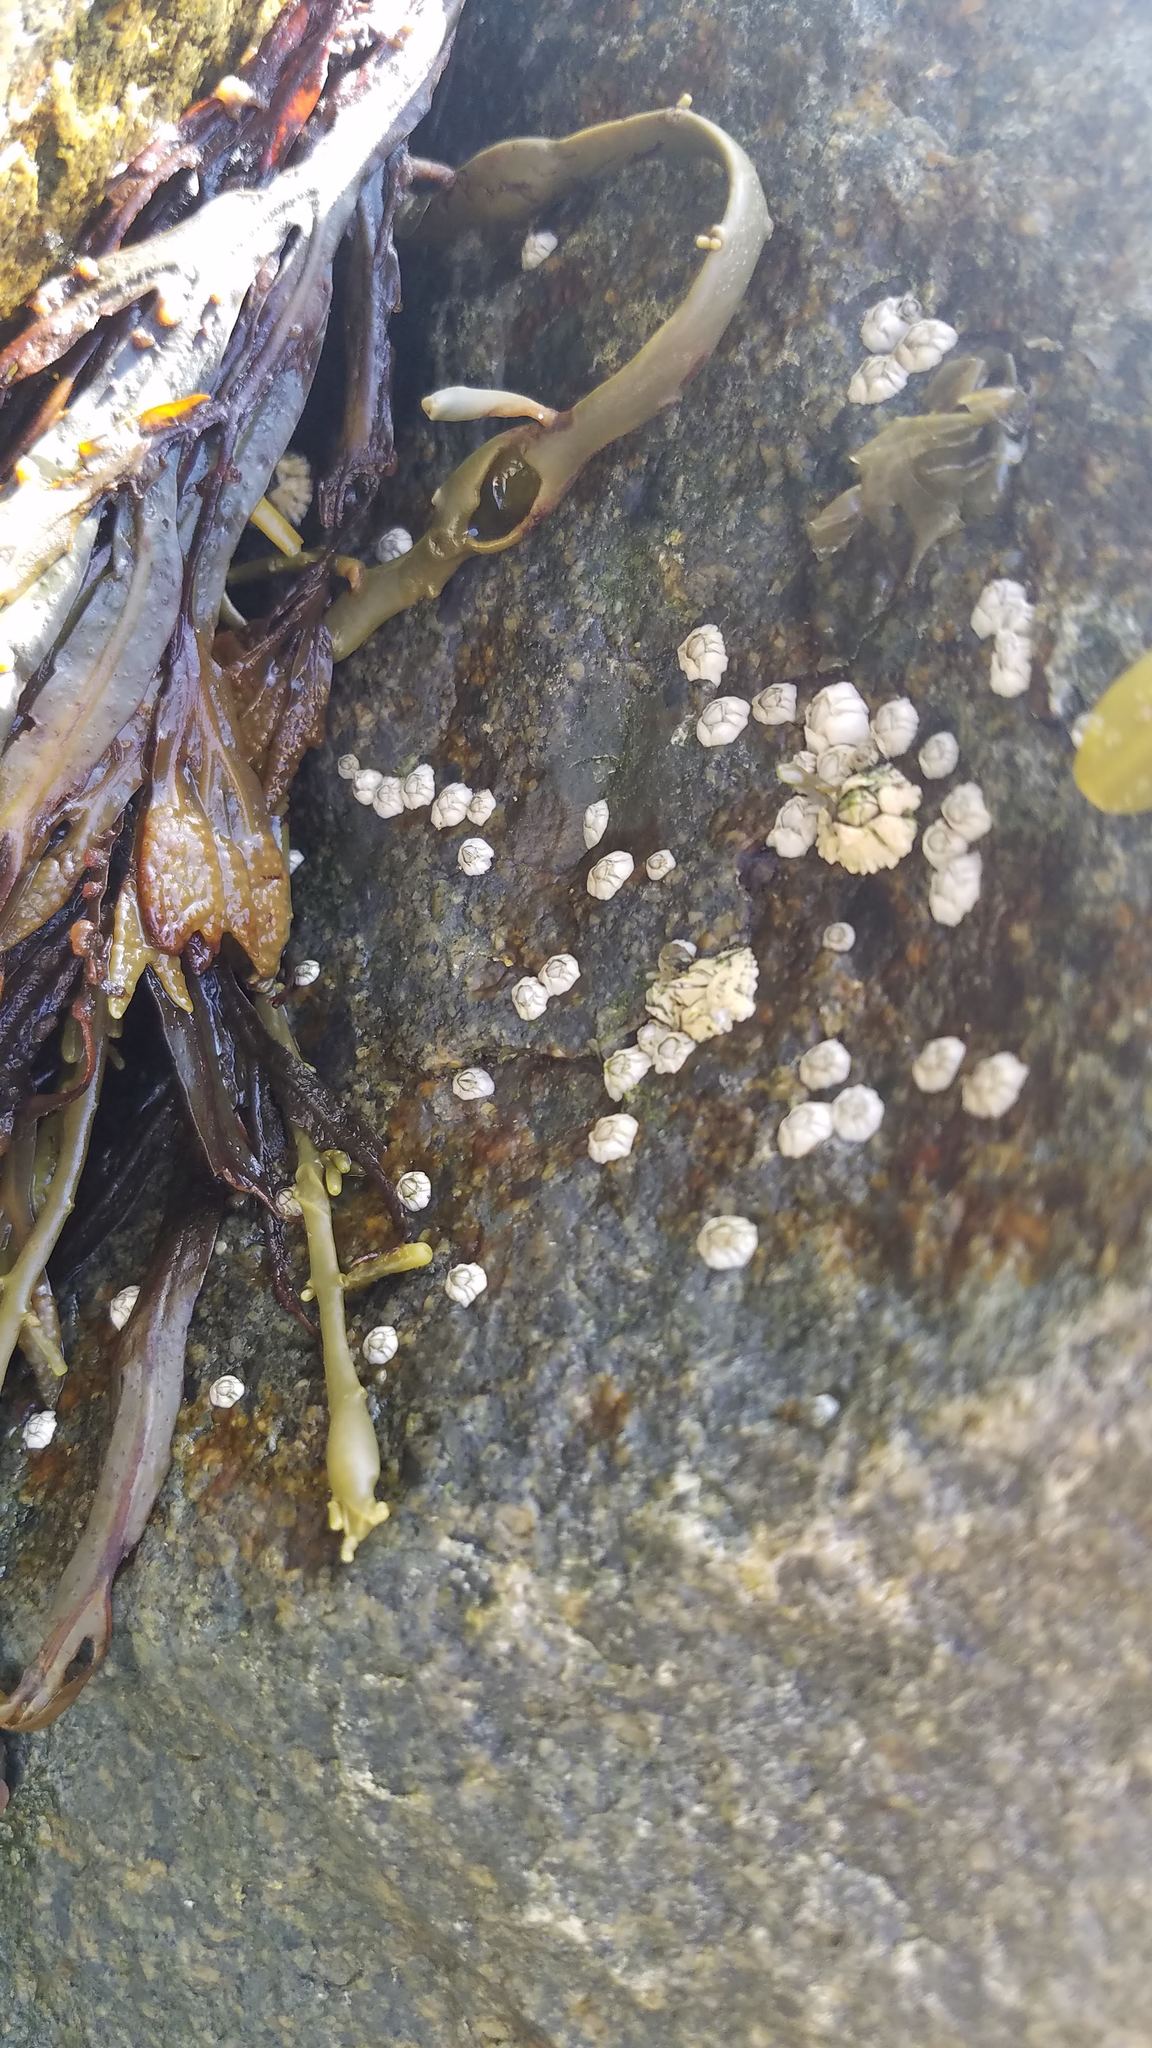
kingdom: Animalia
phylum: Arthropoda
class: Maxillopoda
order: Sessilia
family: Archaeobalanidae
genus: Semibalanus
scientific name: Semibalanus balanoides
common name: Acorn barnacle
